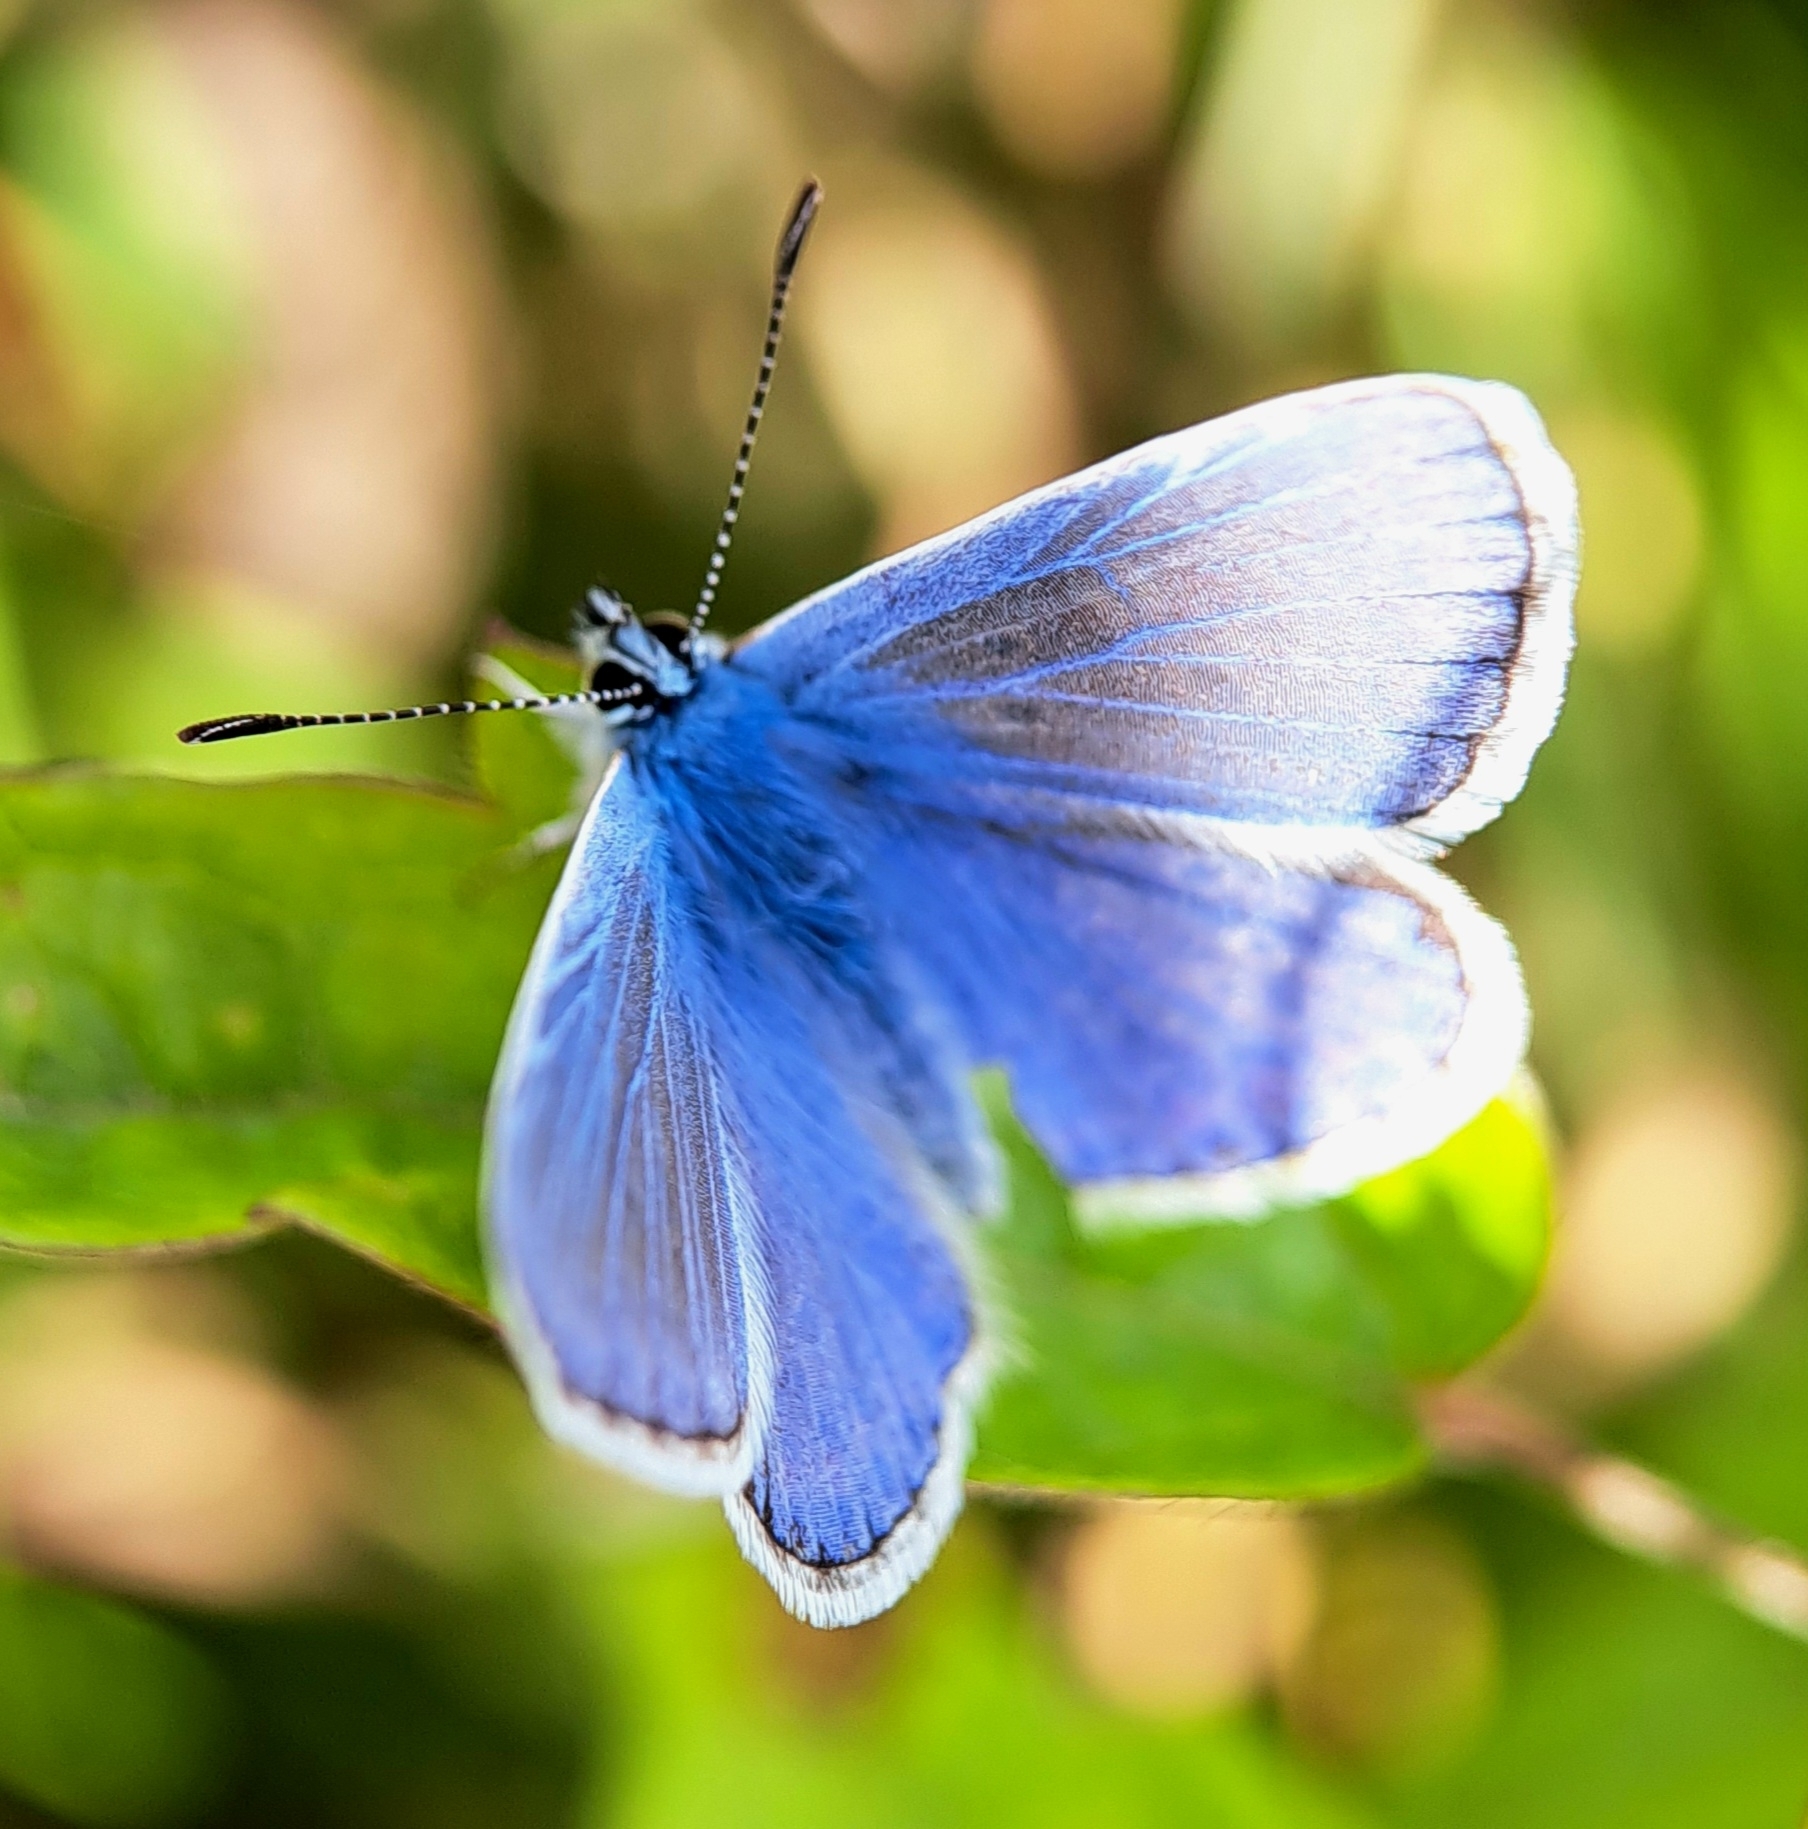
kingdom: Animalia
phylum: Arthropoda
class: Insecta
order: Lepidoptera
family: Lycaenidae
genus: Polyommatus
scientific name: Polyommatus icarus
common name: Common blue
